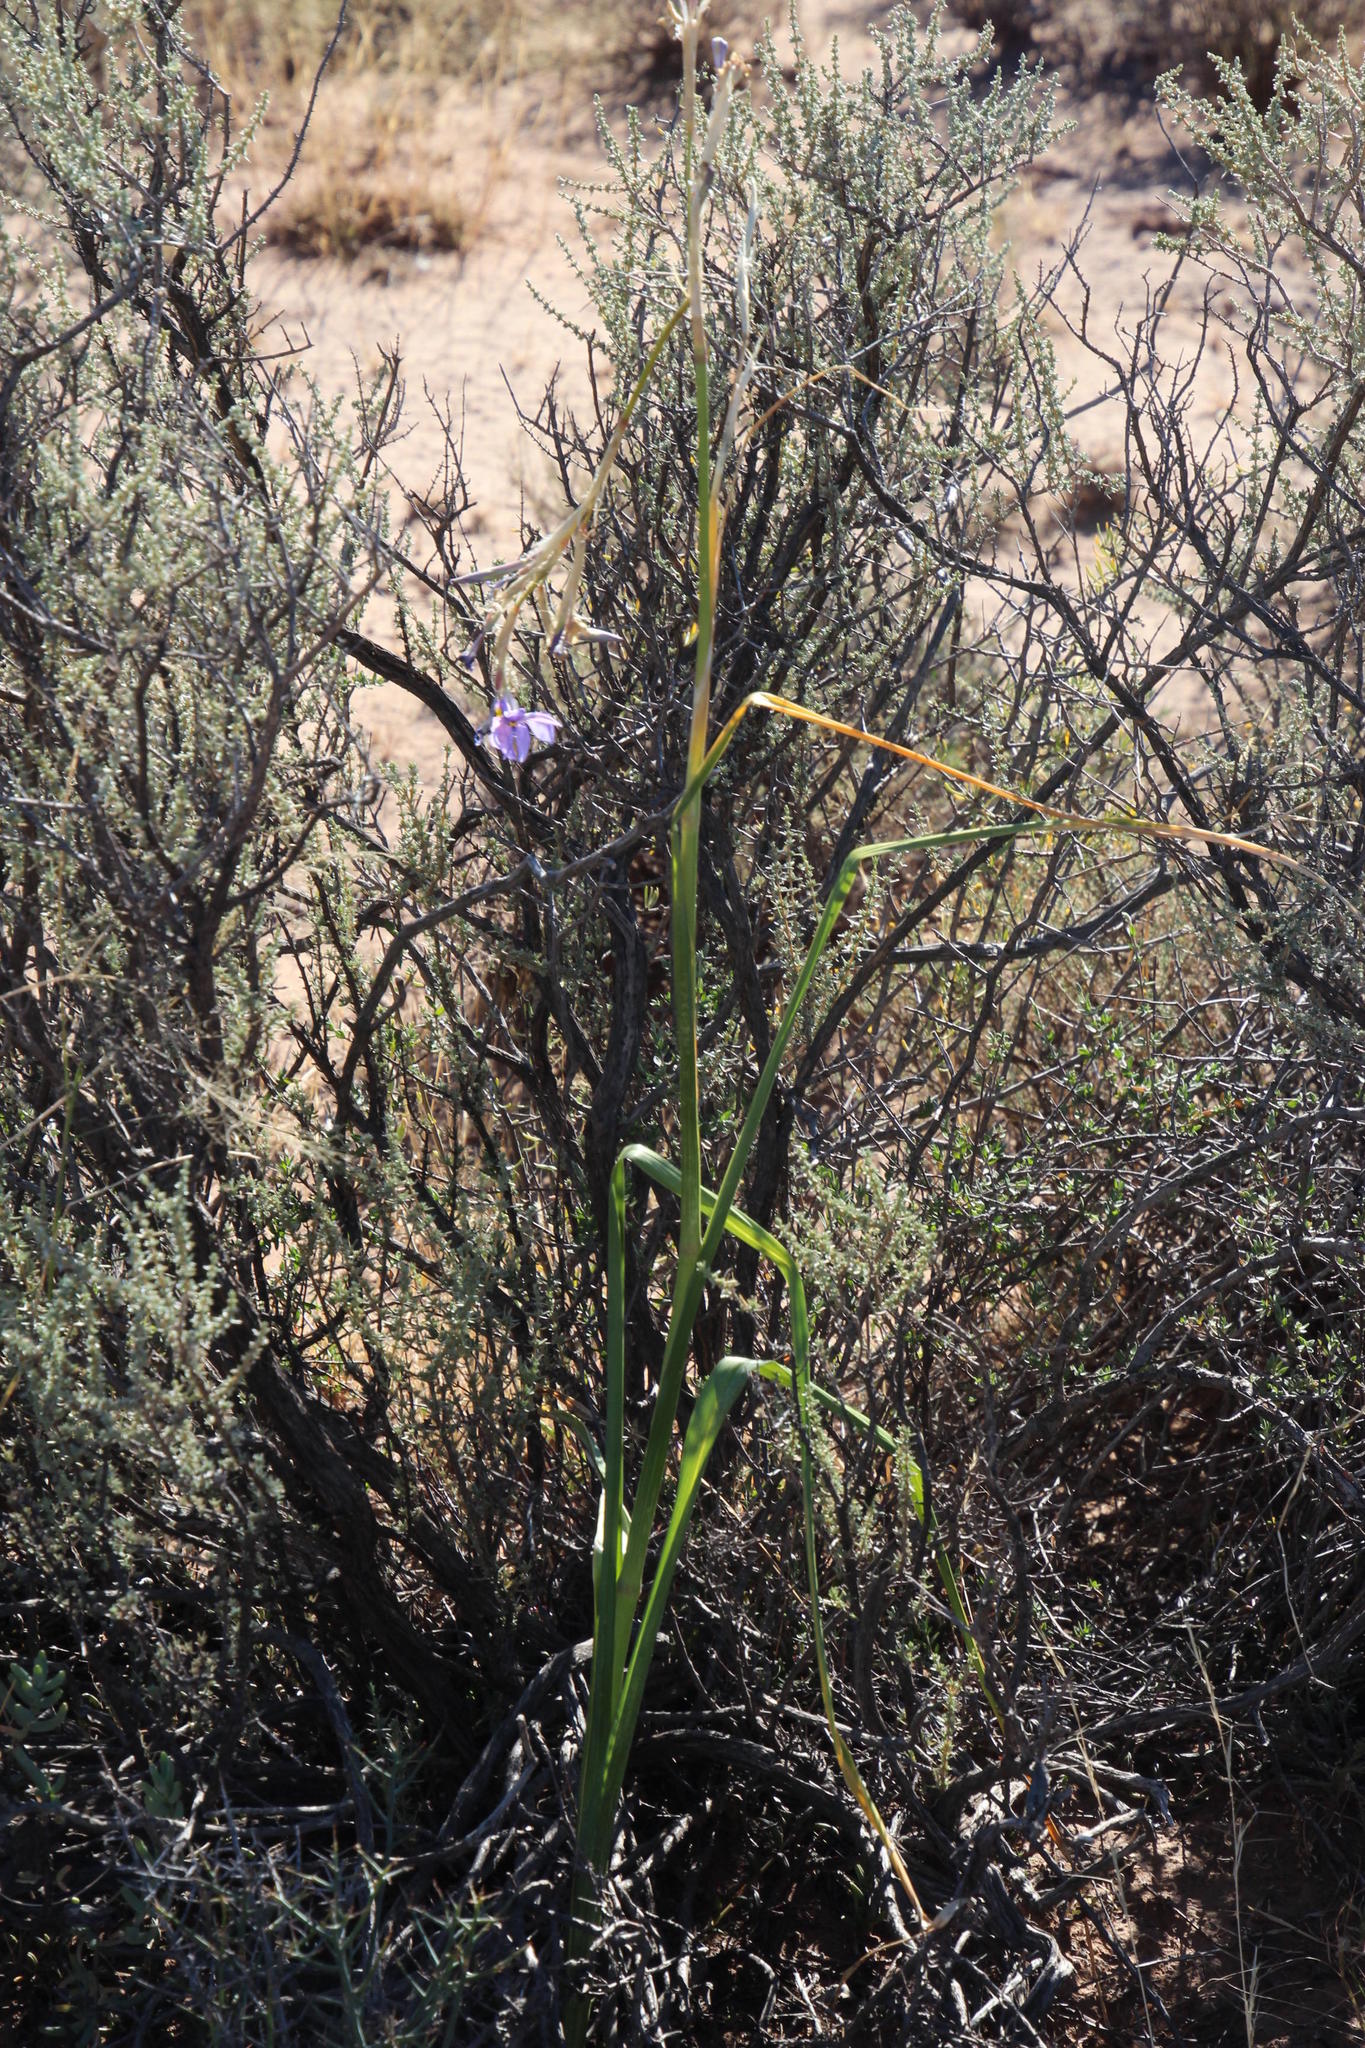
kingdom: Plantae
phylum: Tracheophyta
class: Liliopsida
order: Asparagales
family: Iridaceae
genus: Moraea
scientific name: Moraea polystachya
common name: Blue-tulip
